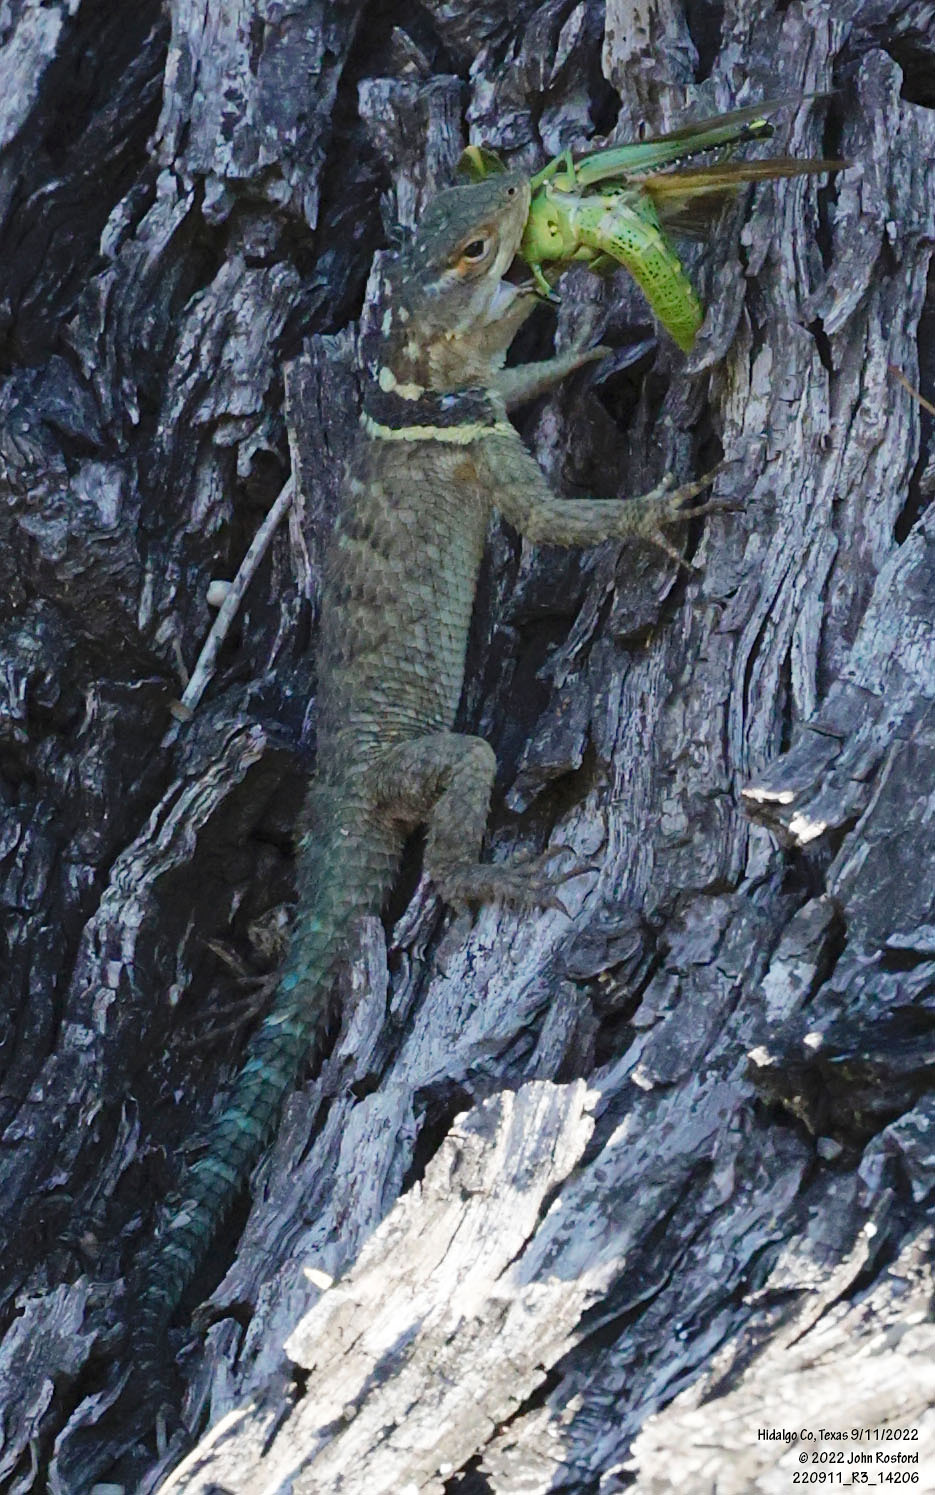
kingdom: Animalia
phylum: Chordata
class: Squamata
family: Phrynosomatidae
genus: Sceloporus
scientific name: Sceloporus cyanogenys
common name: Blue spiny lizard
